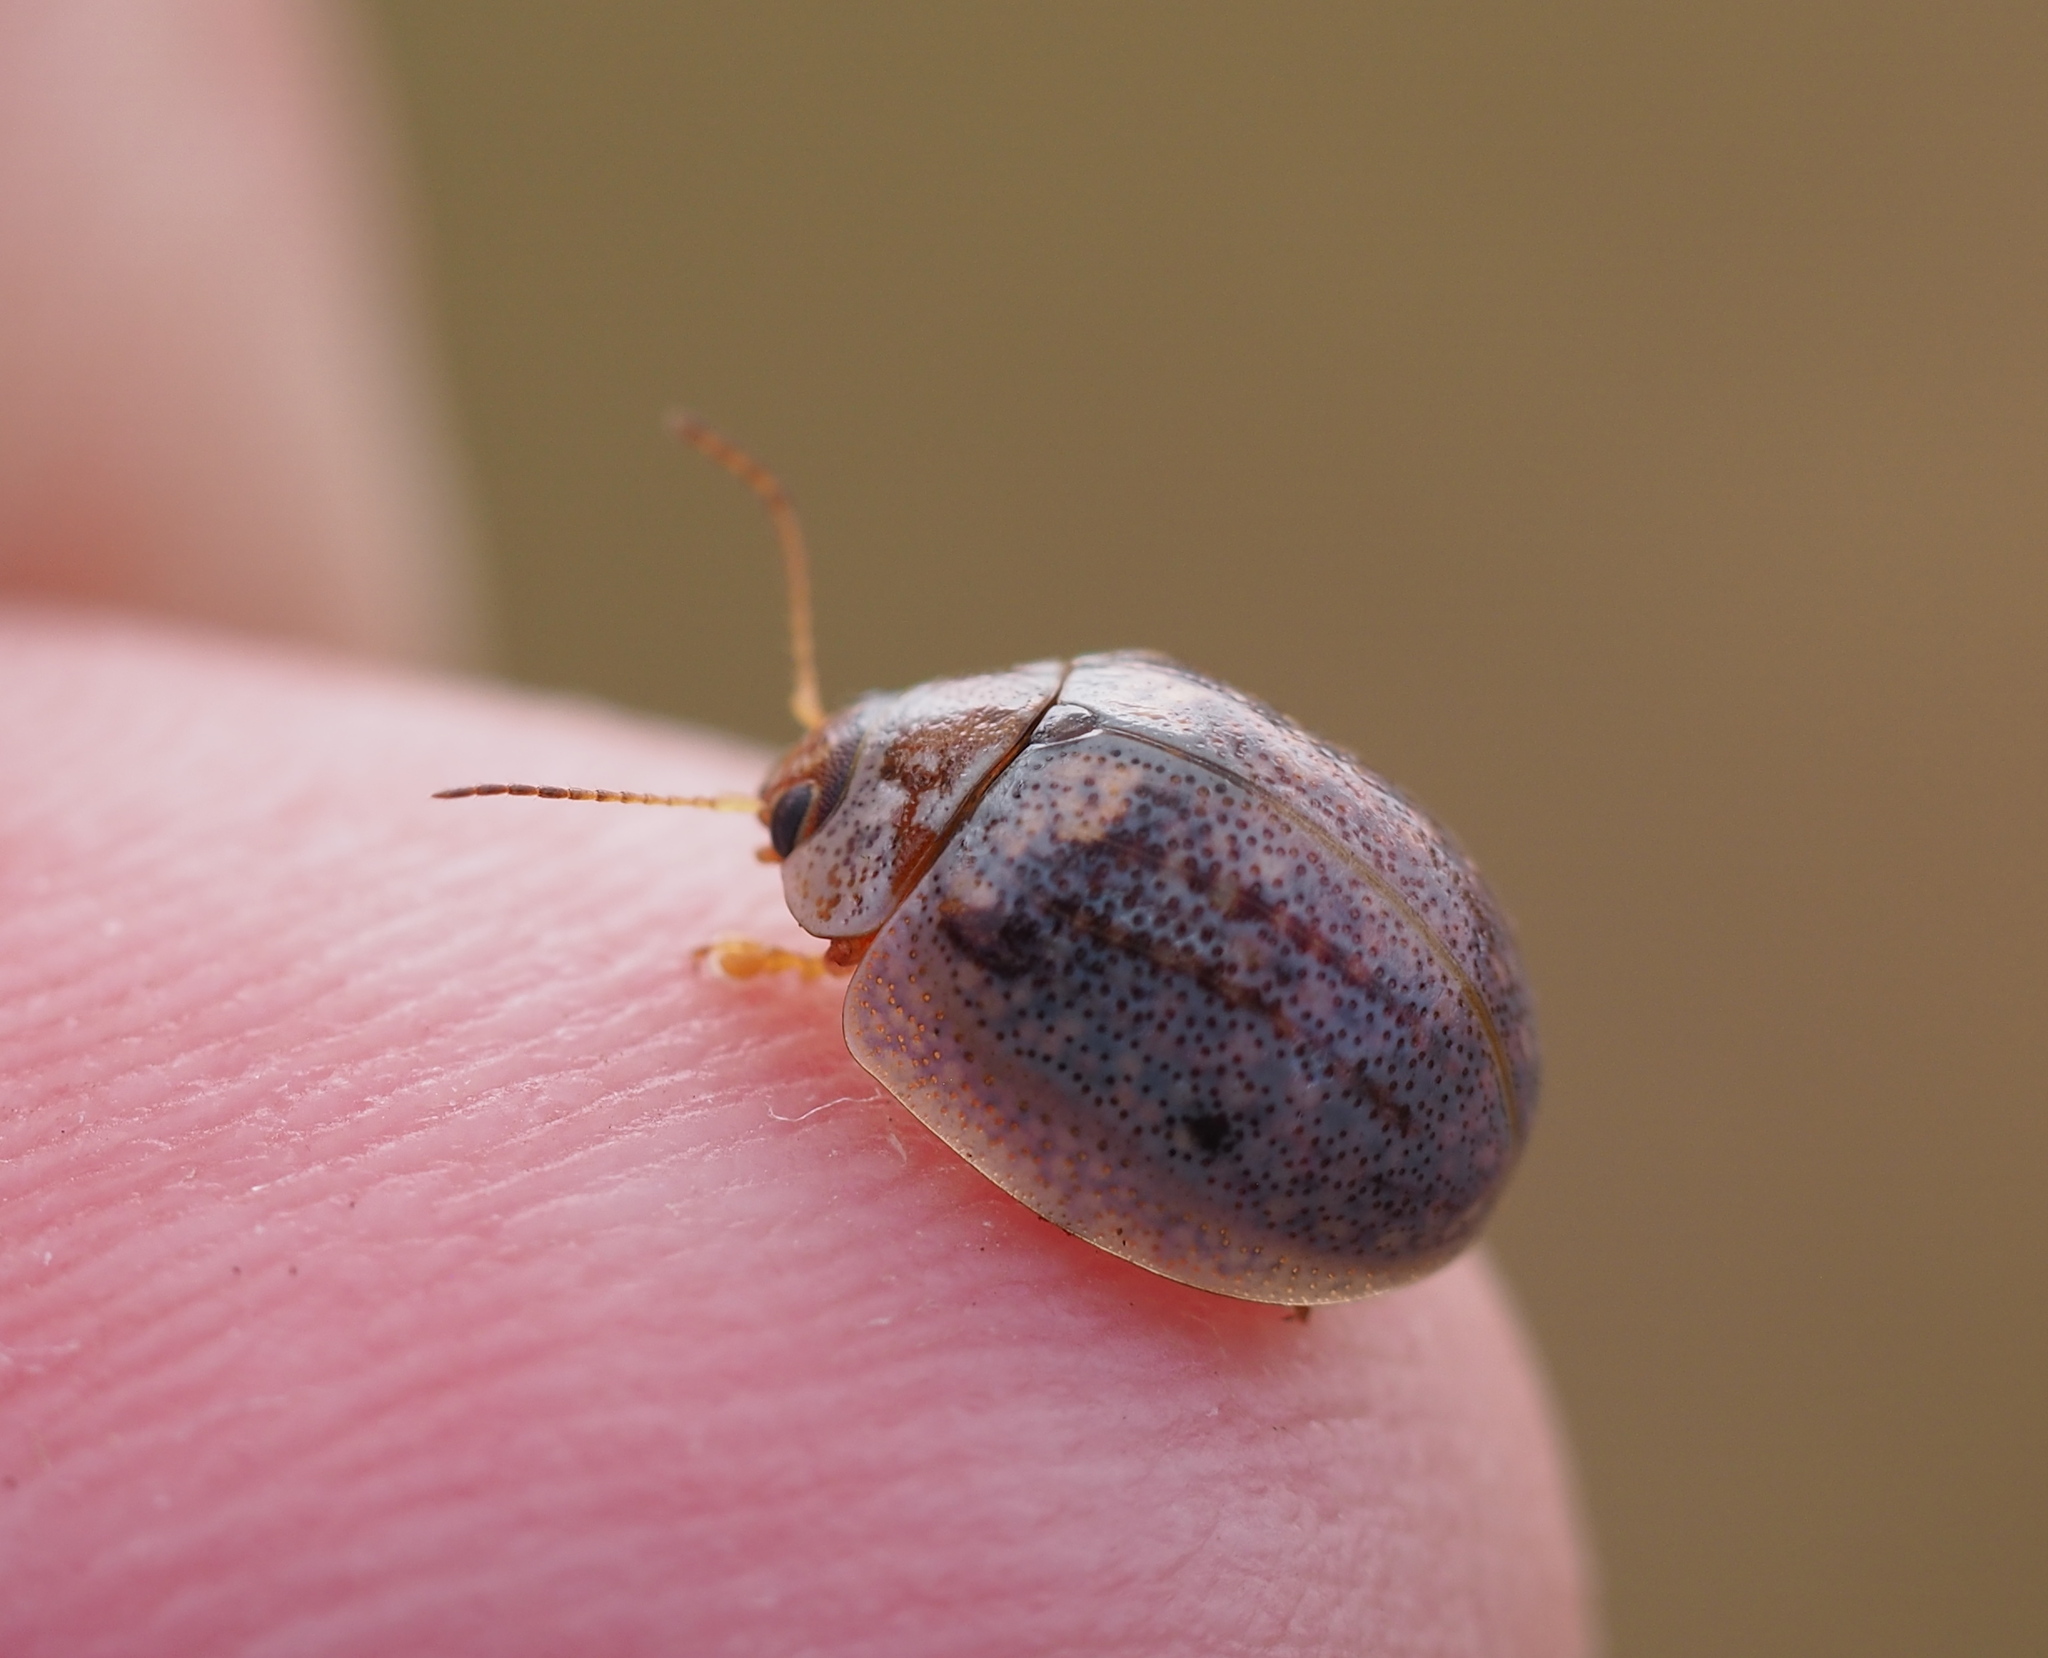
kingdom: Animalia
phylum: Arthropoda
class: Insecta
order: Coleoptera
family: Chrysomelidae
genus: Paropsisterna
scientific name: Paropsisterna m-fuscum
